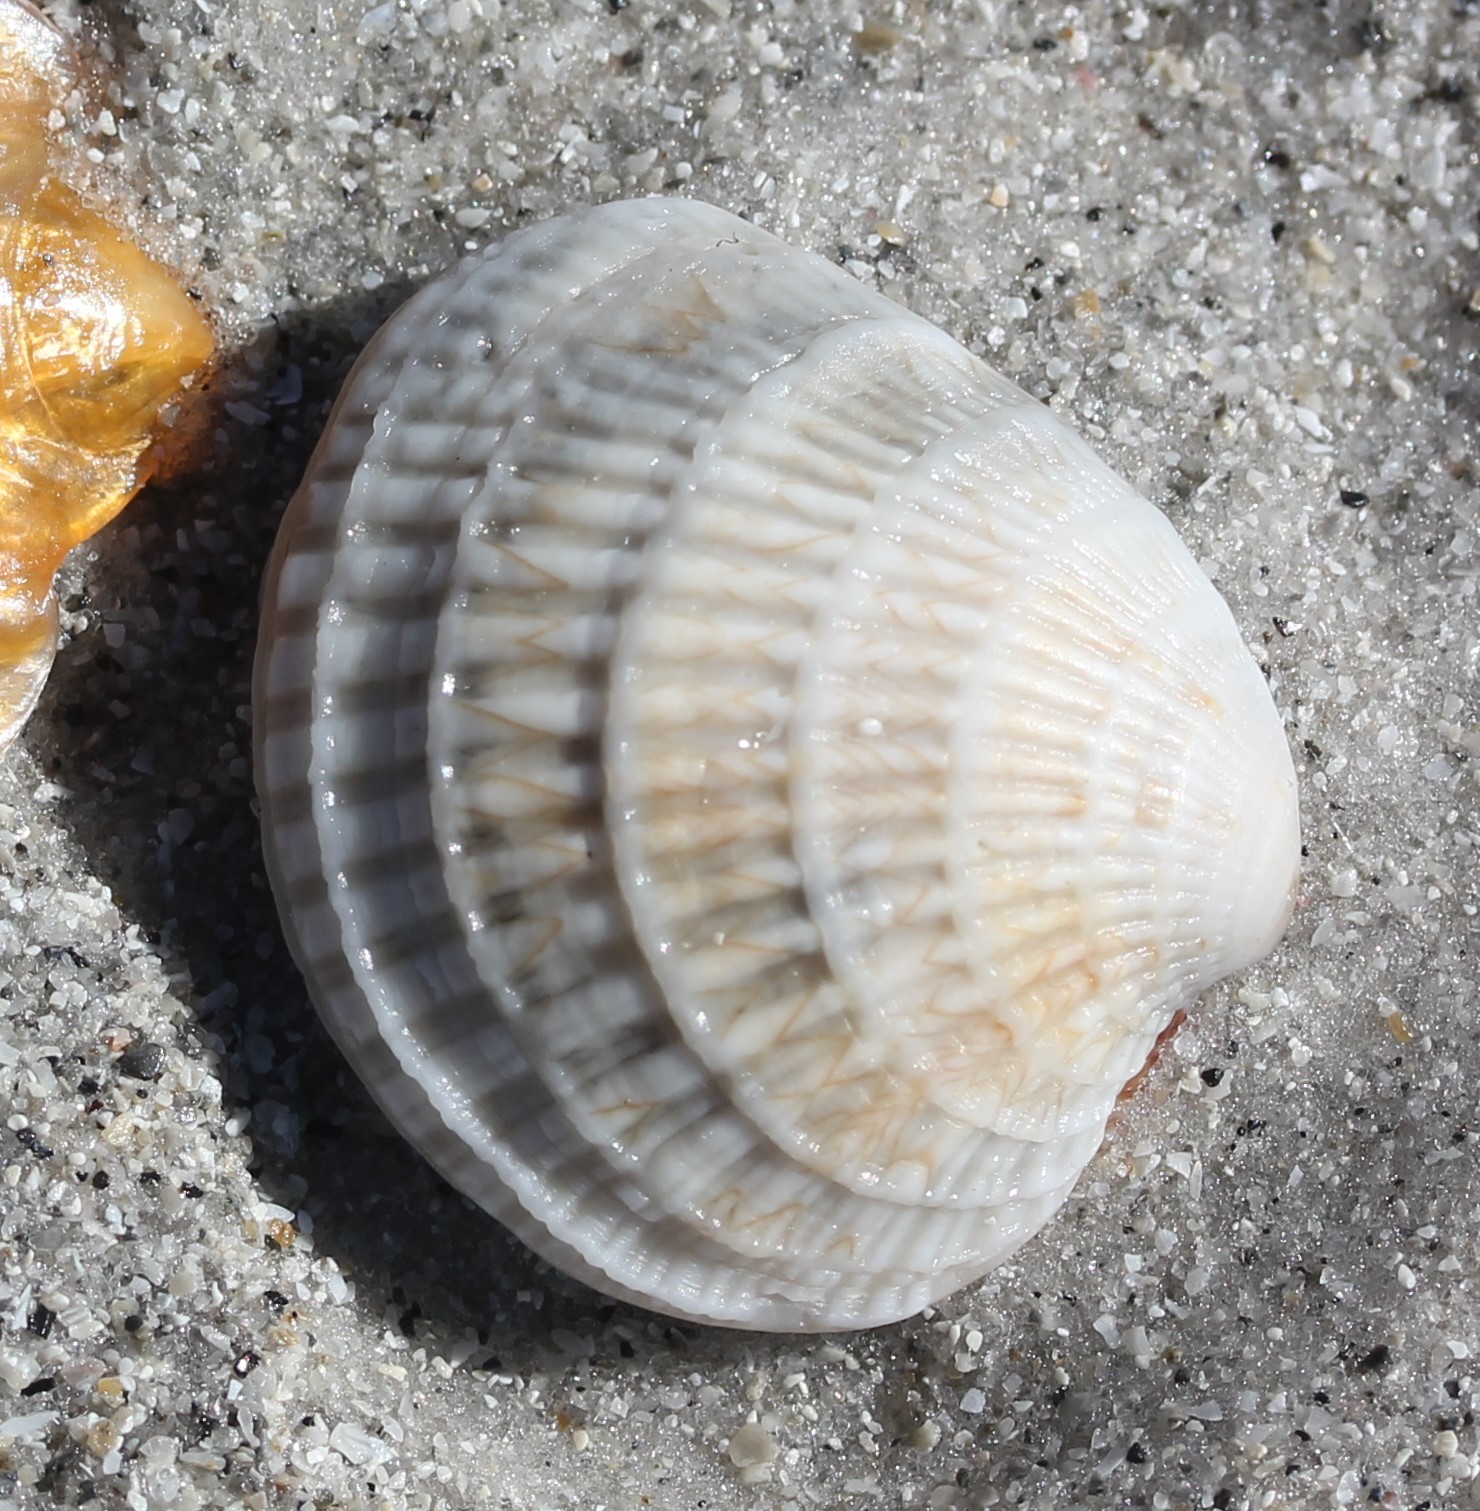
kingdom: Animalia
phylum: Mollusca
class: Bivalvia
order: Venerida
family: Veneridae
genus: Chione
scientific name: Chione elevata
